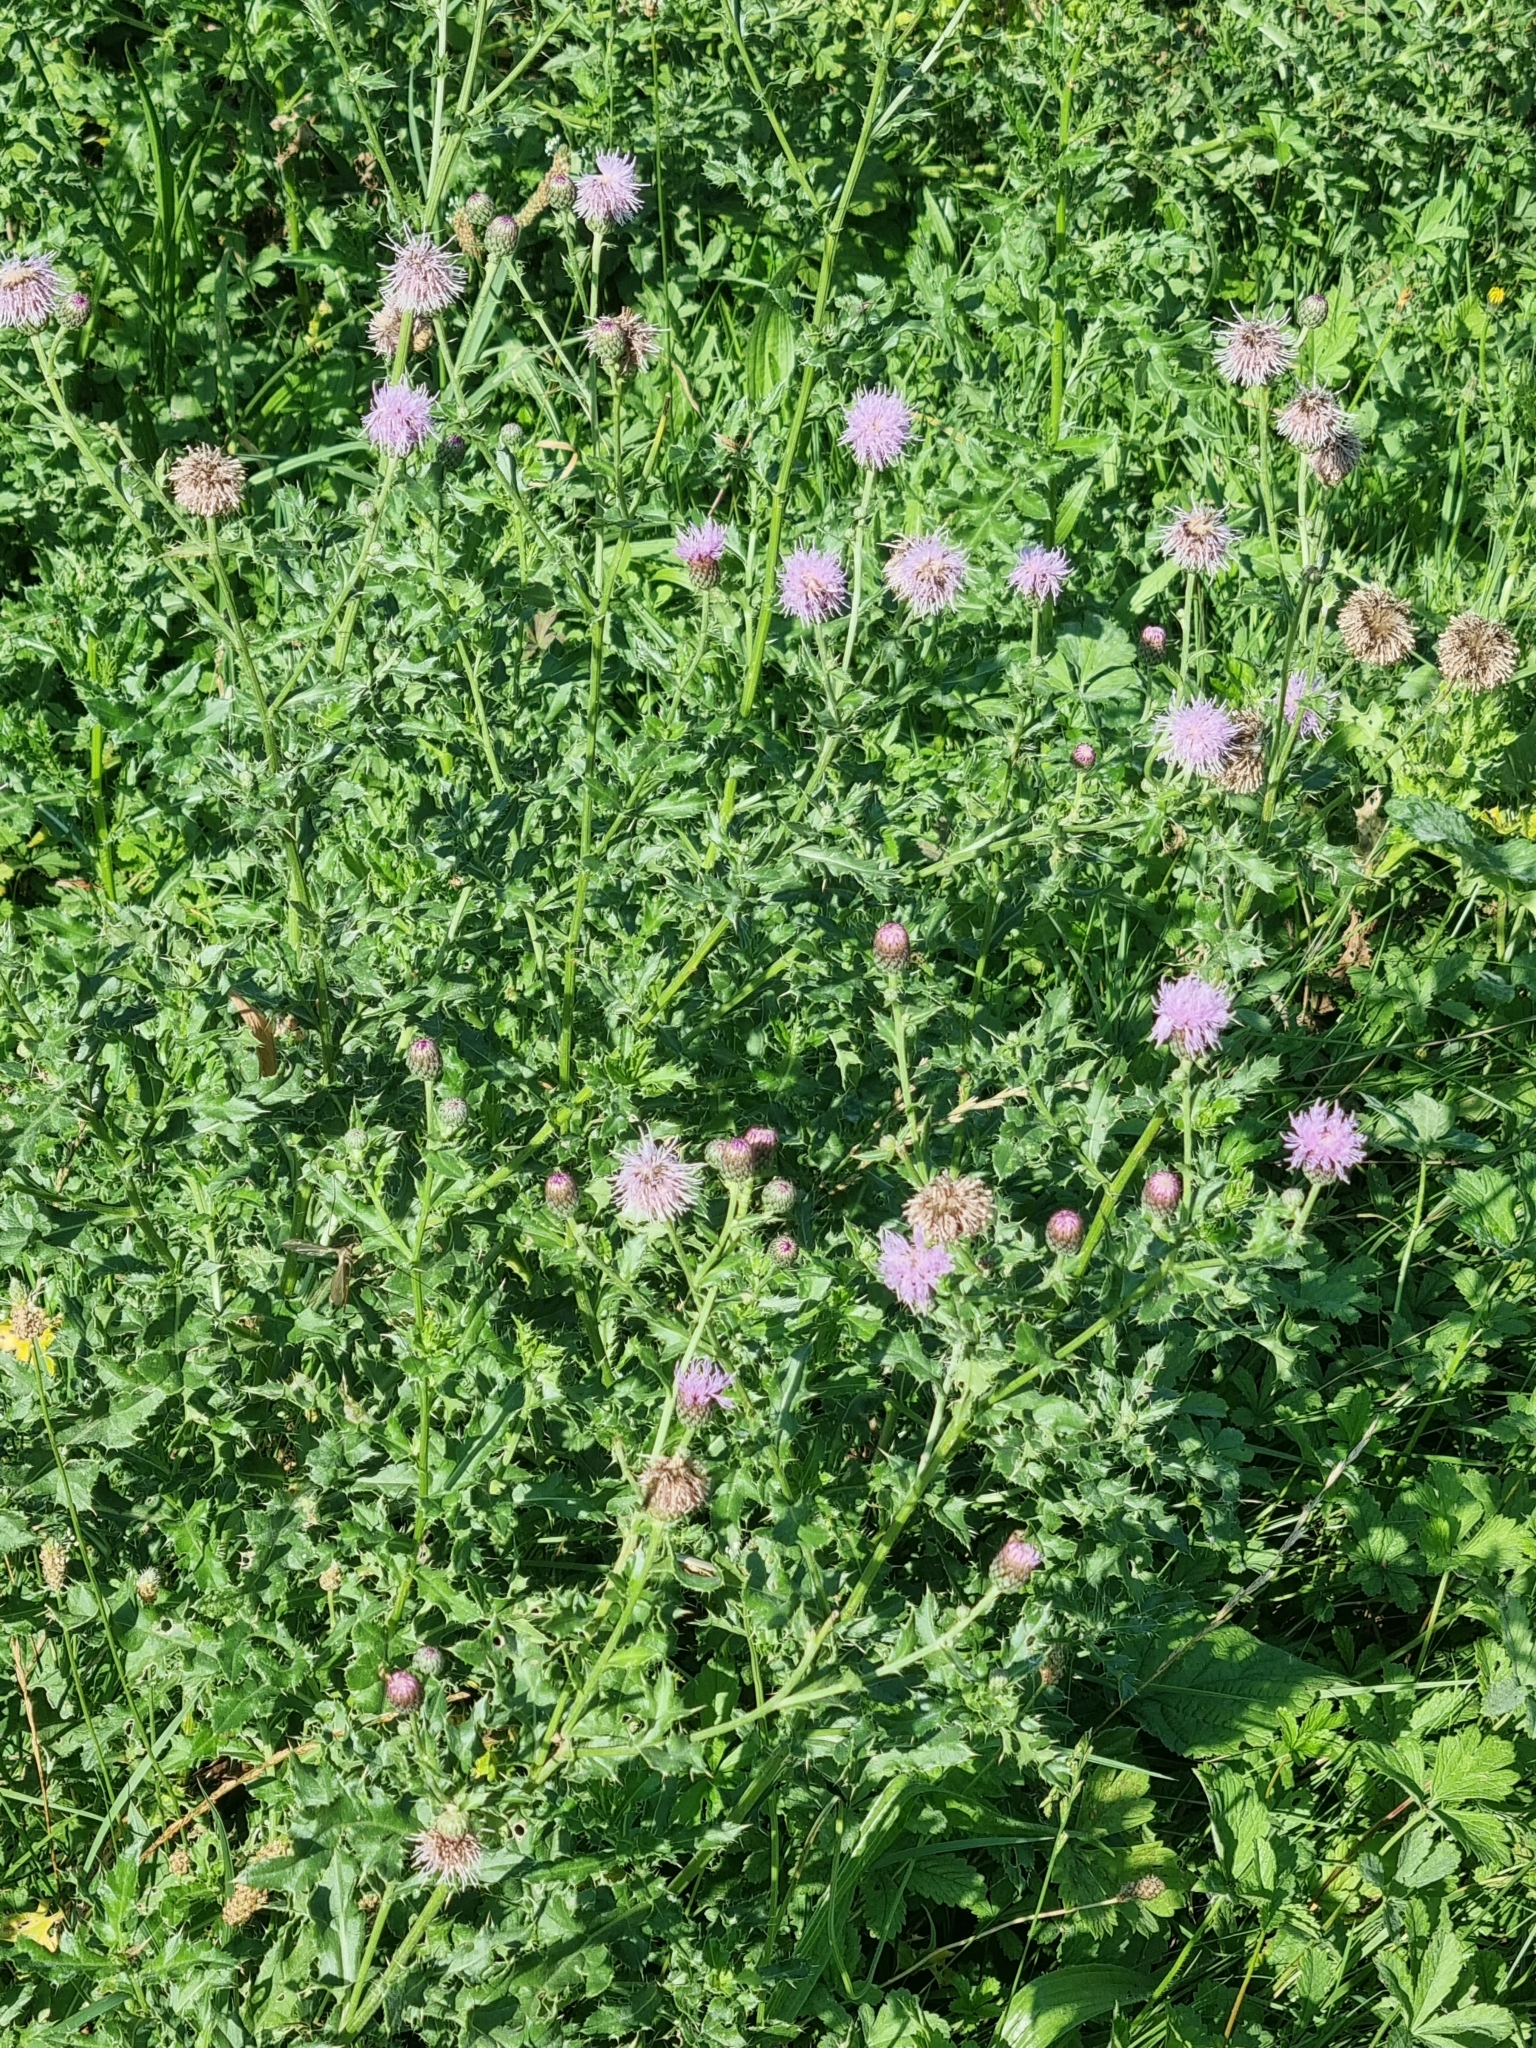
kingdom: Plantae
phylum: Tracheophyta
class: Magnoliopsida
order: Asterales
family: Asteraceae
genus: Cirsium
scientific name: Cirsium arvense
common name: Creeping thistle
